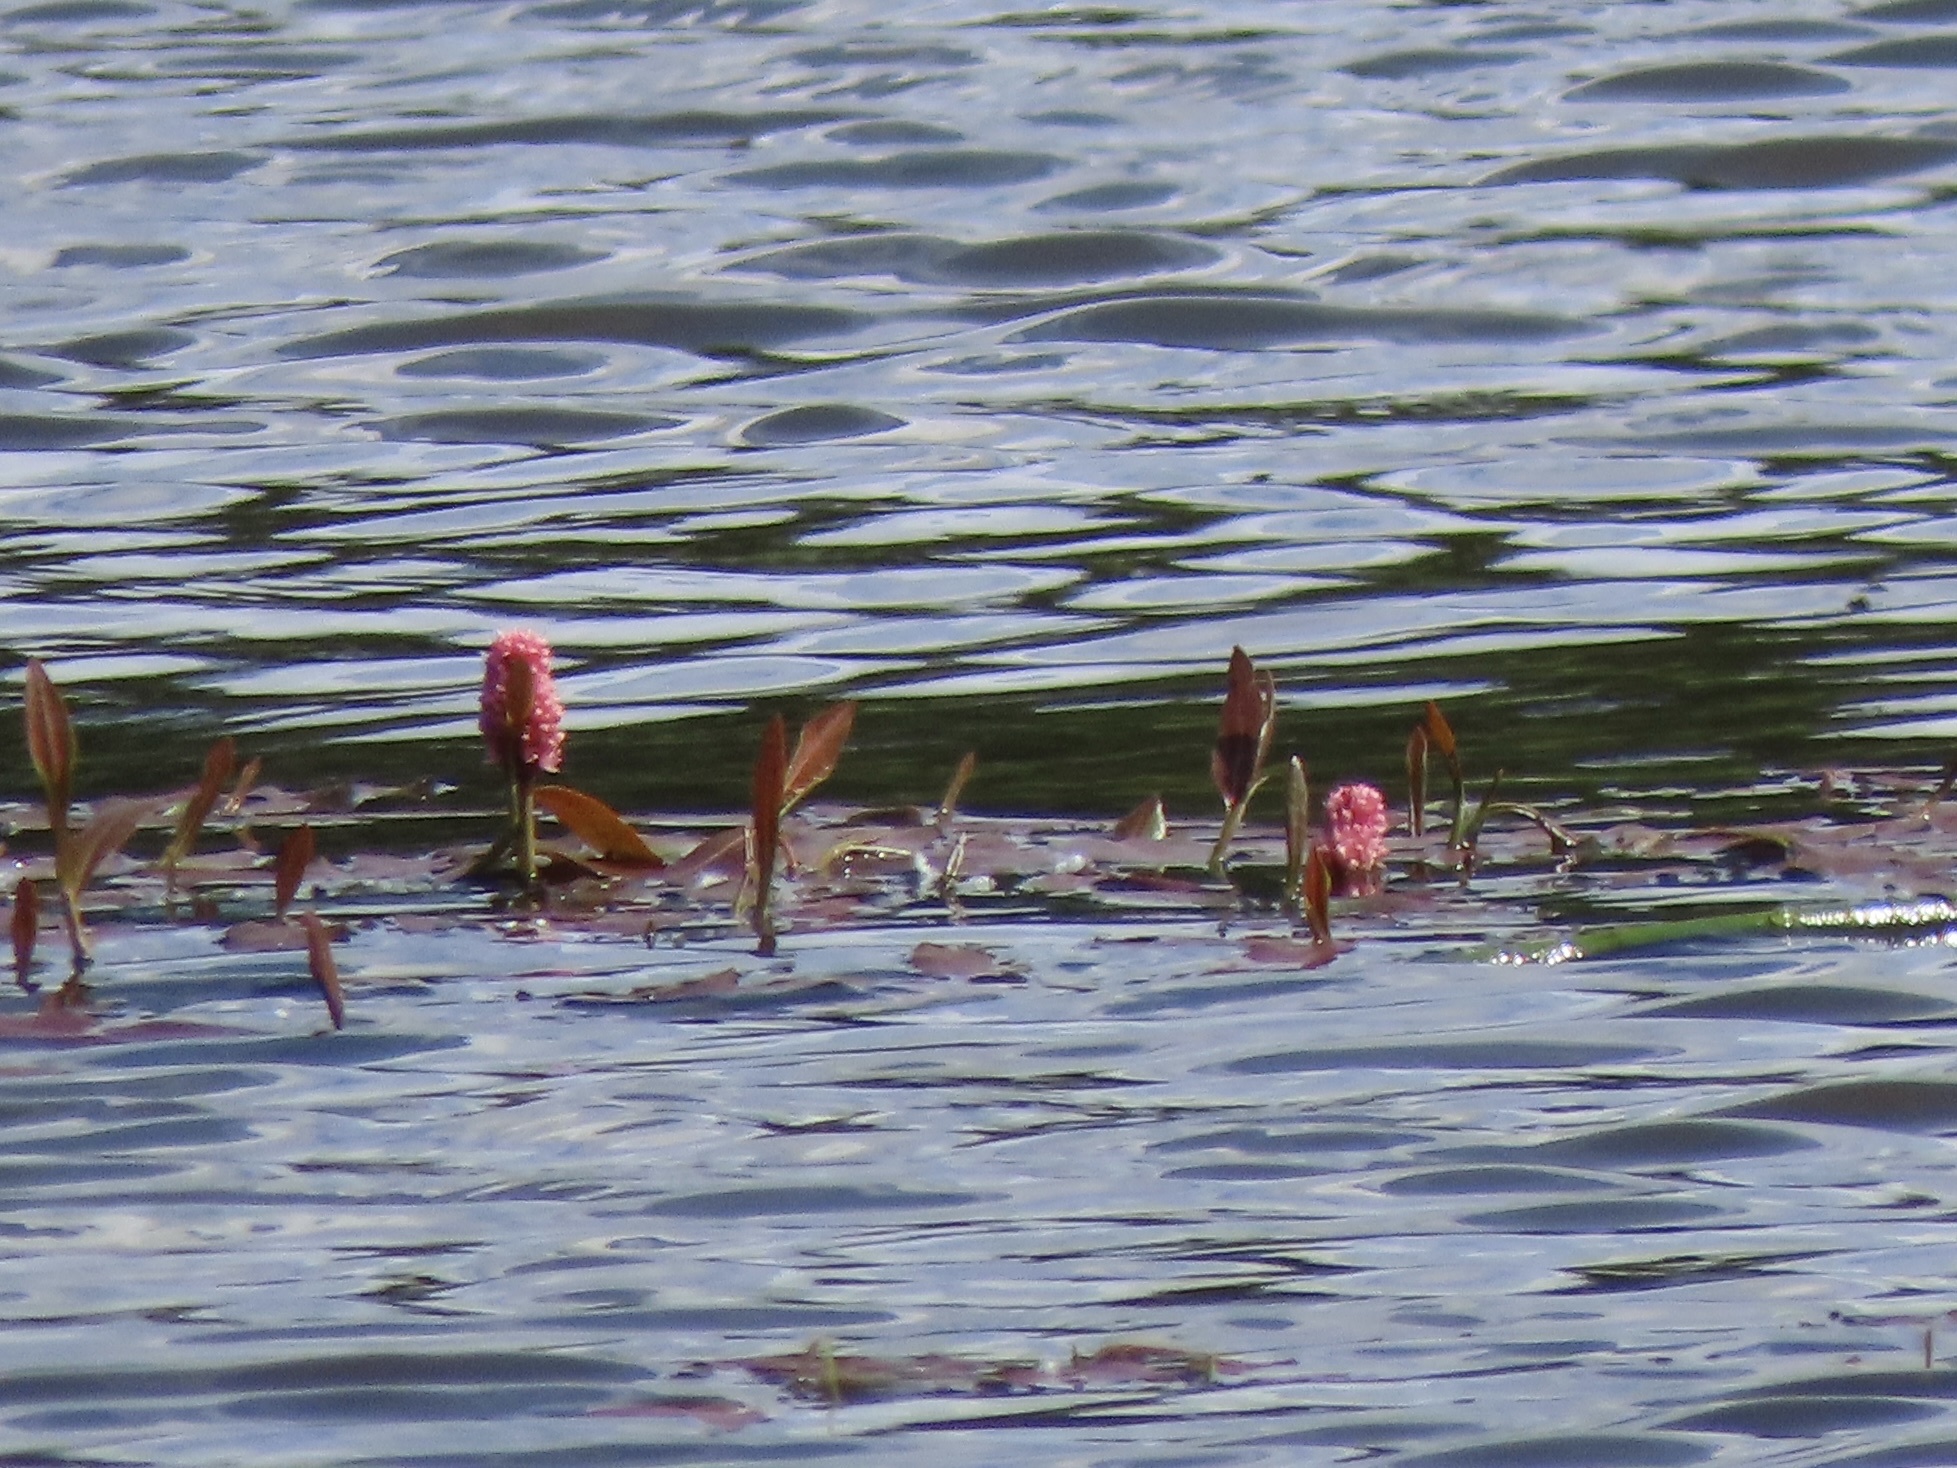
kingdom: Plantae
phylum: Tracheophyta
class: Magnoliopsida
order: Caryophyllales
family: Polygonaceae
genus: Persicaria
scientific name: Persicaria amphibia
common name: Amphibious bistort
